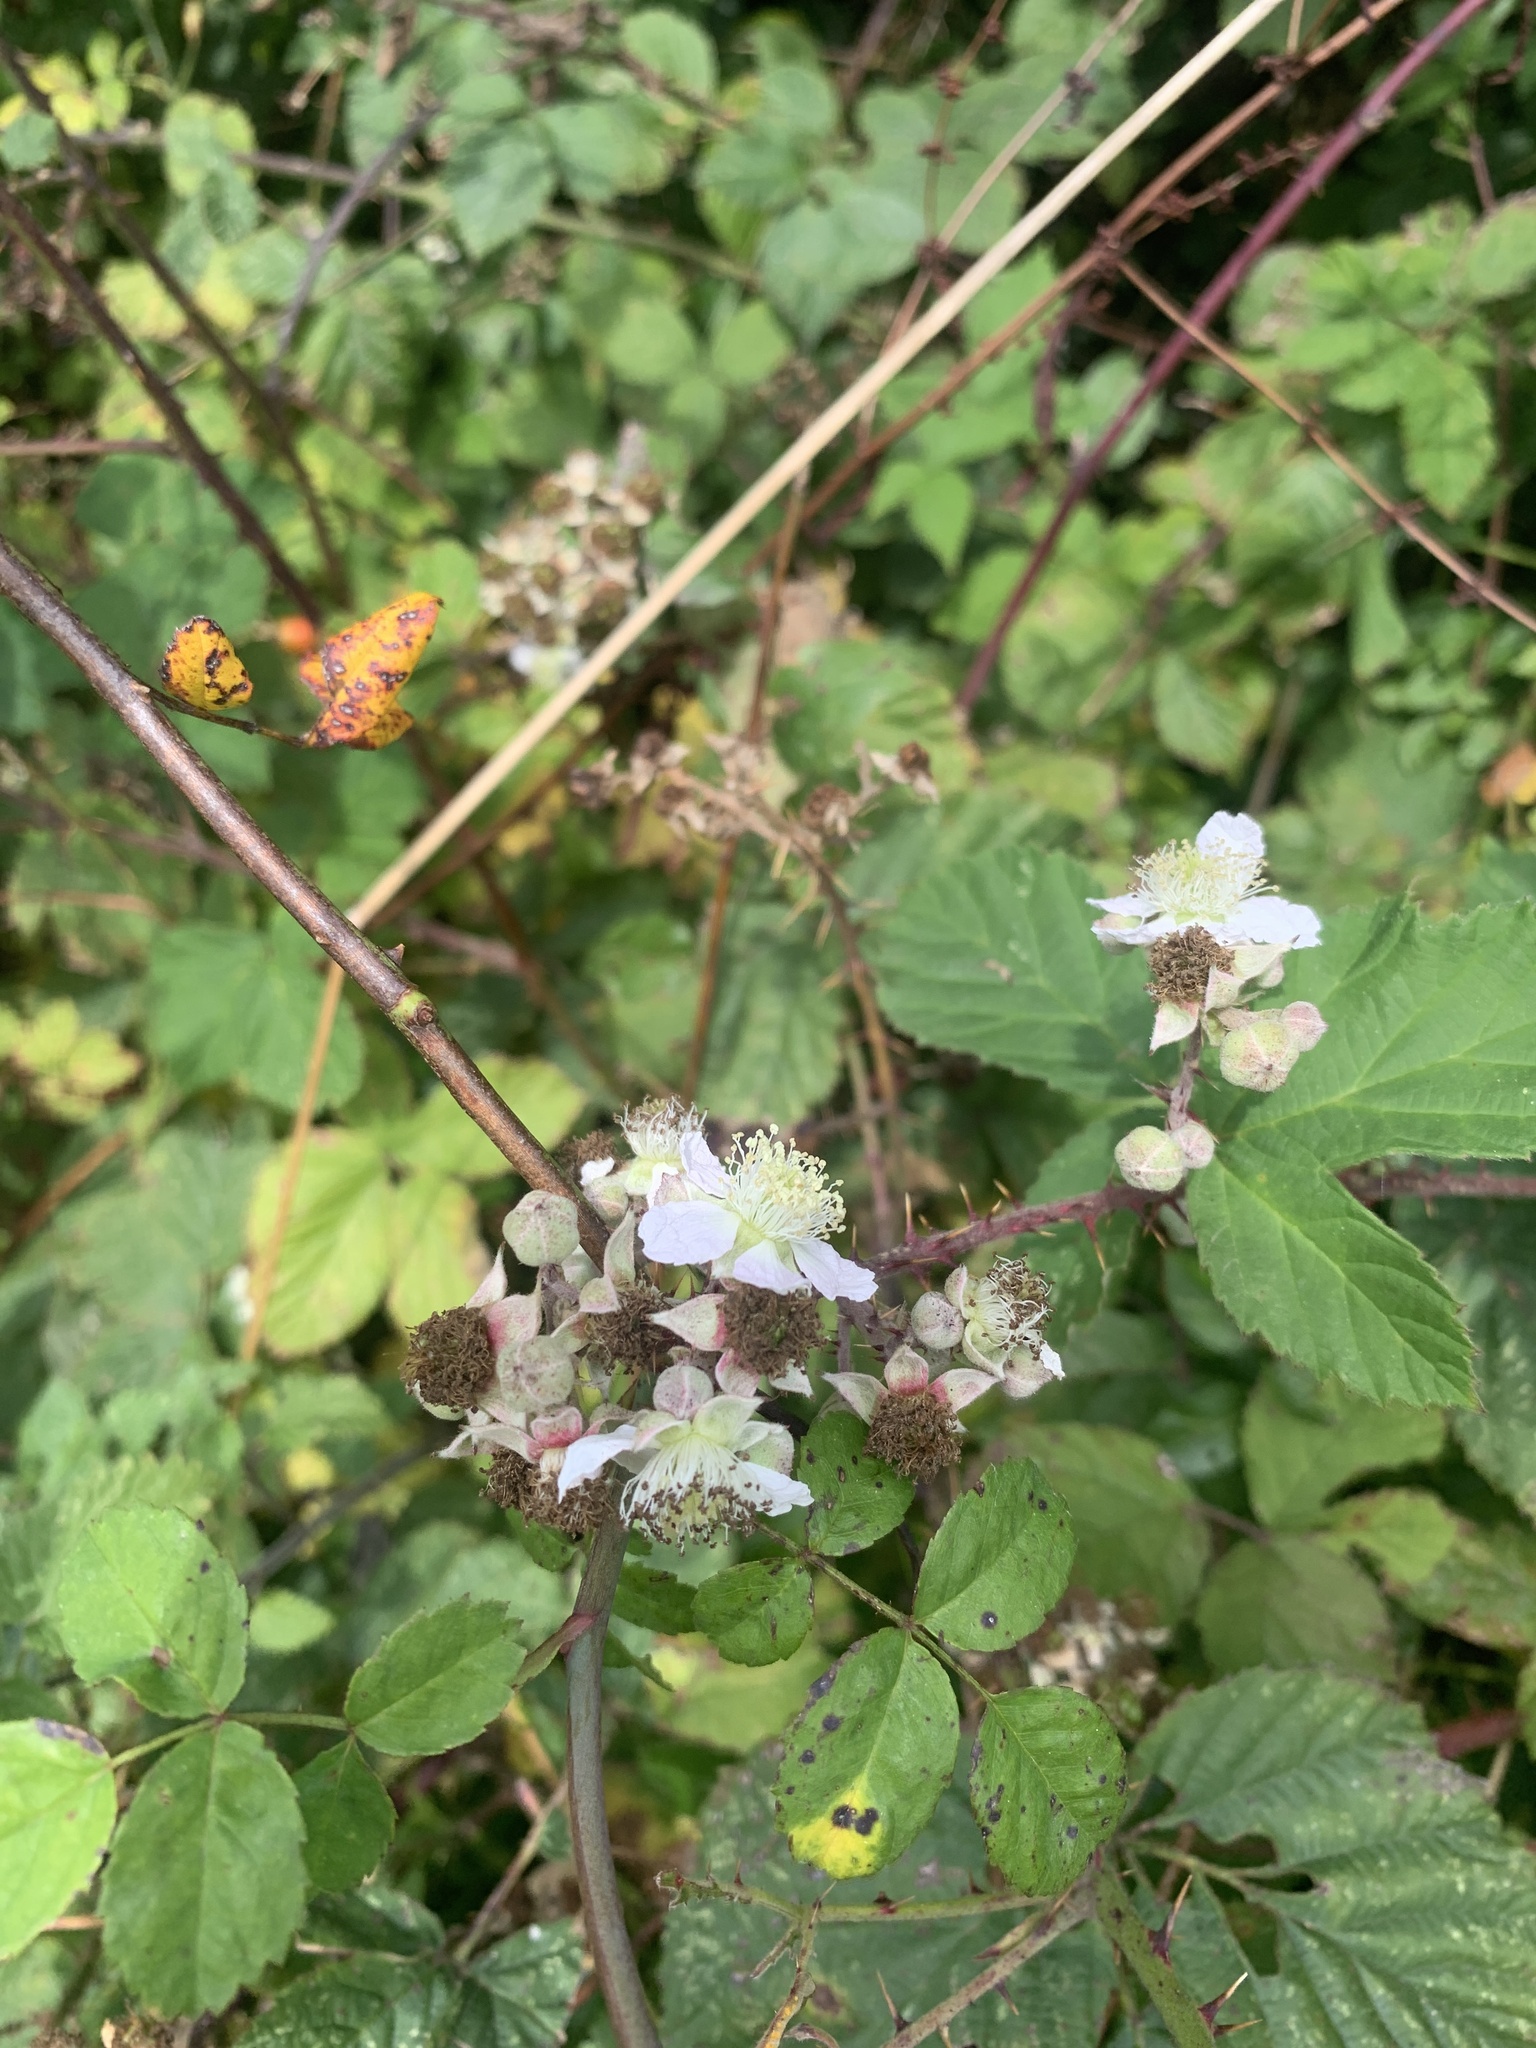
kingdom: Plantae
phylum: Tracheophyta
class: Magnoliopsida
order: Rosales
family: Rosaceae
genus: Rubus
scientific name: Rubus fruticosus
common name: Blackberry, bramble
